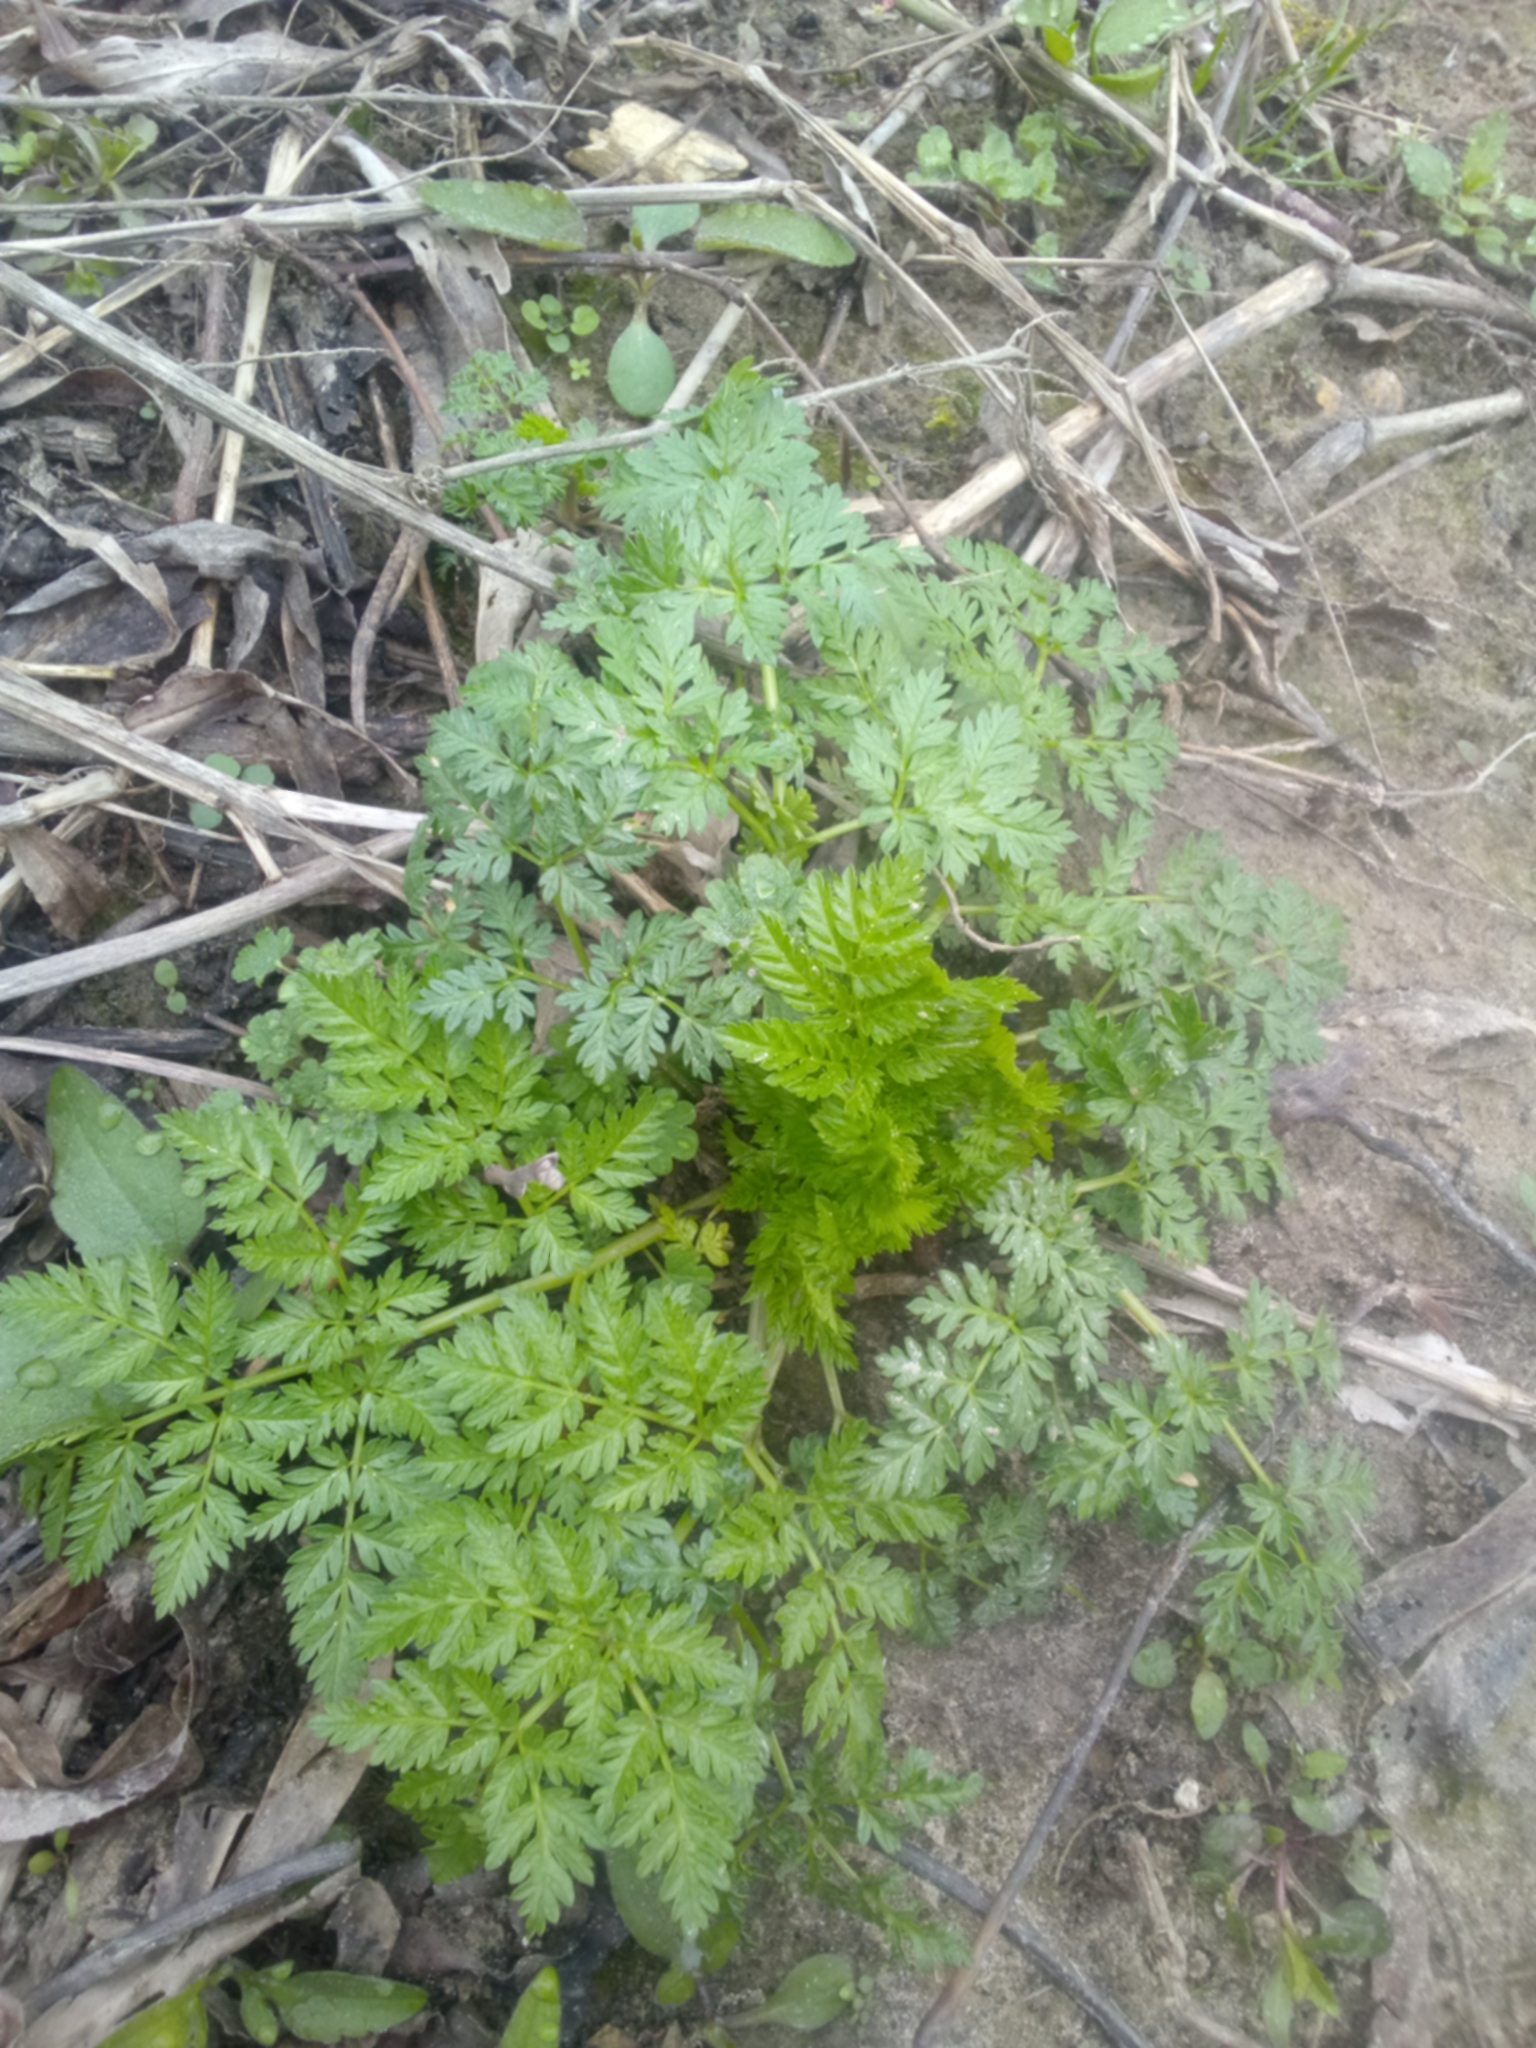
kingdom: Plantae
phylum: Tracheophyta
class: Magnoliopsida
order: Apiales
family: Apiaceae
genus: Conium
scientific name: Conium maculatum
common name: Hemlock
